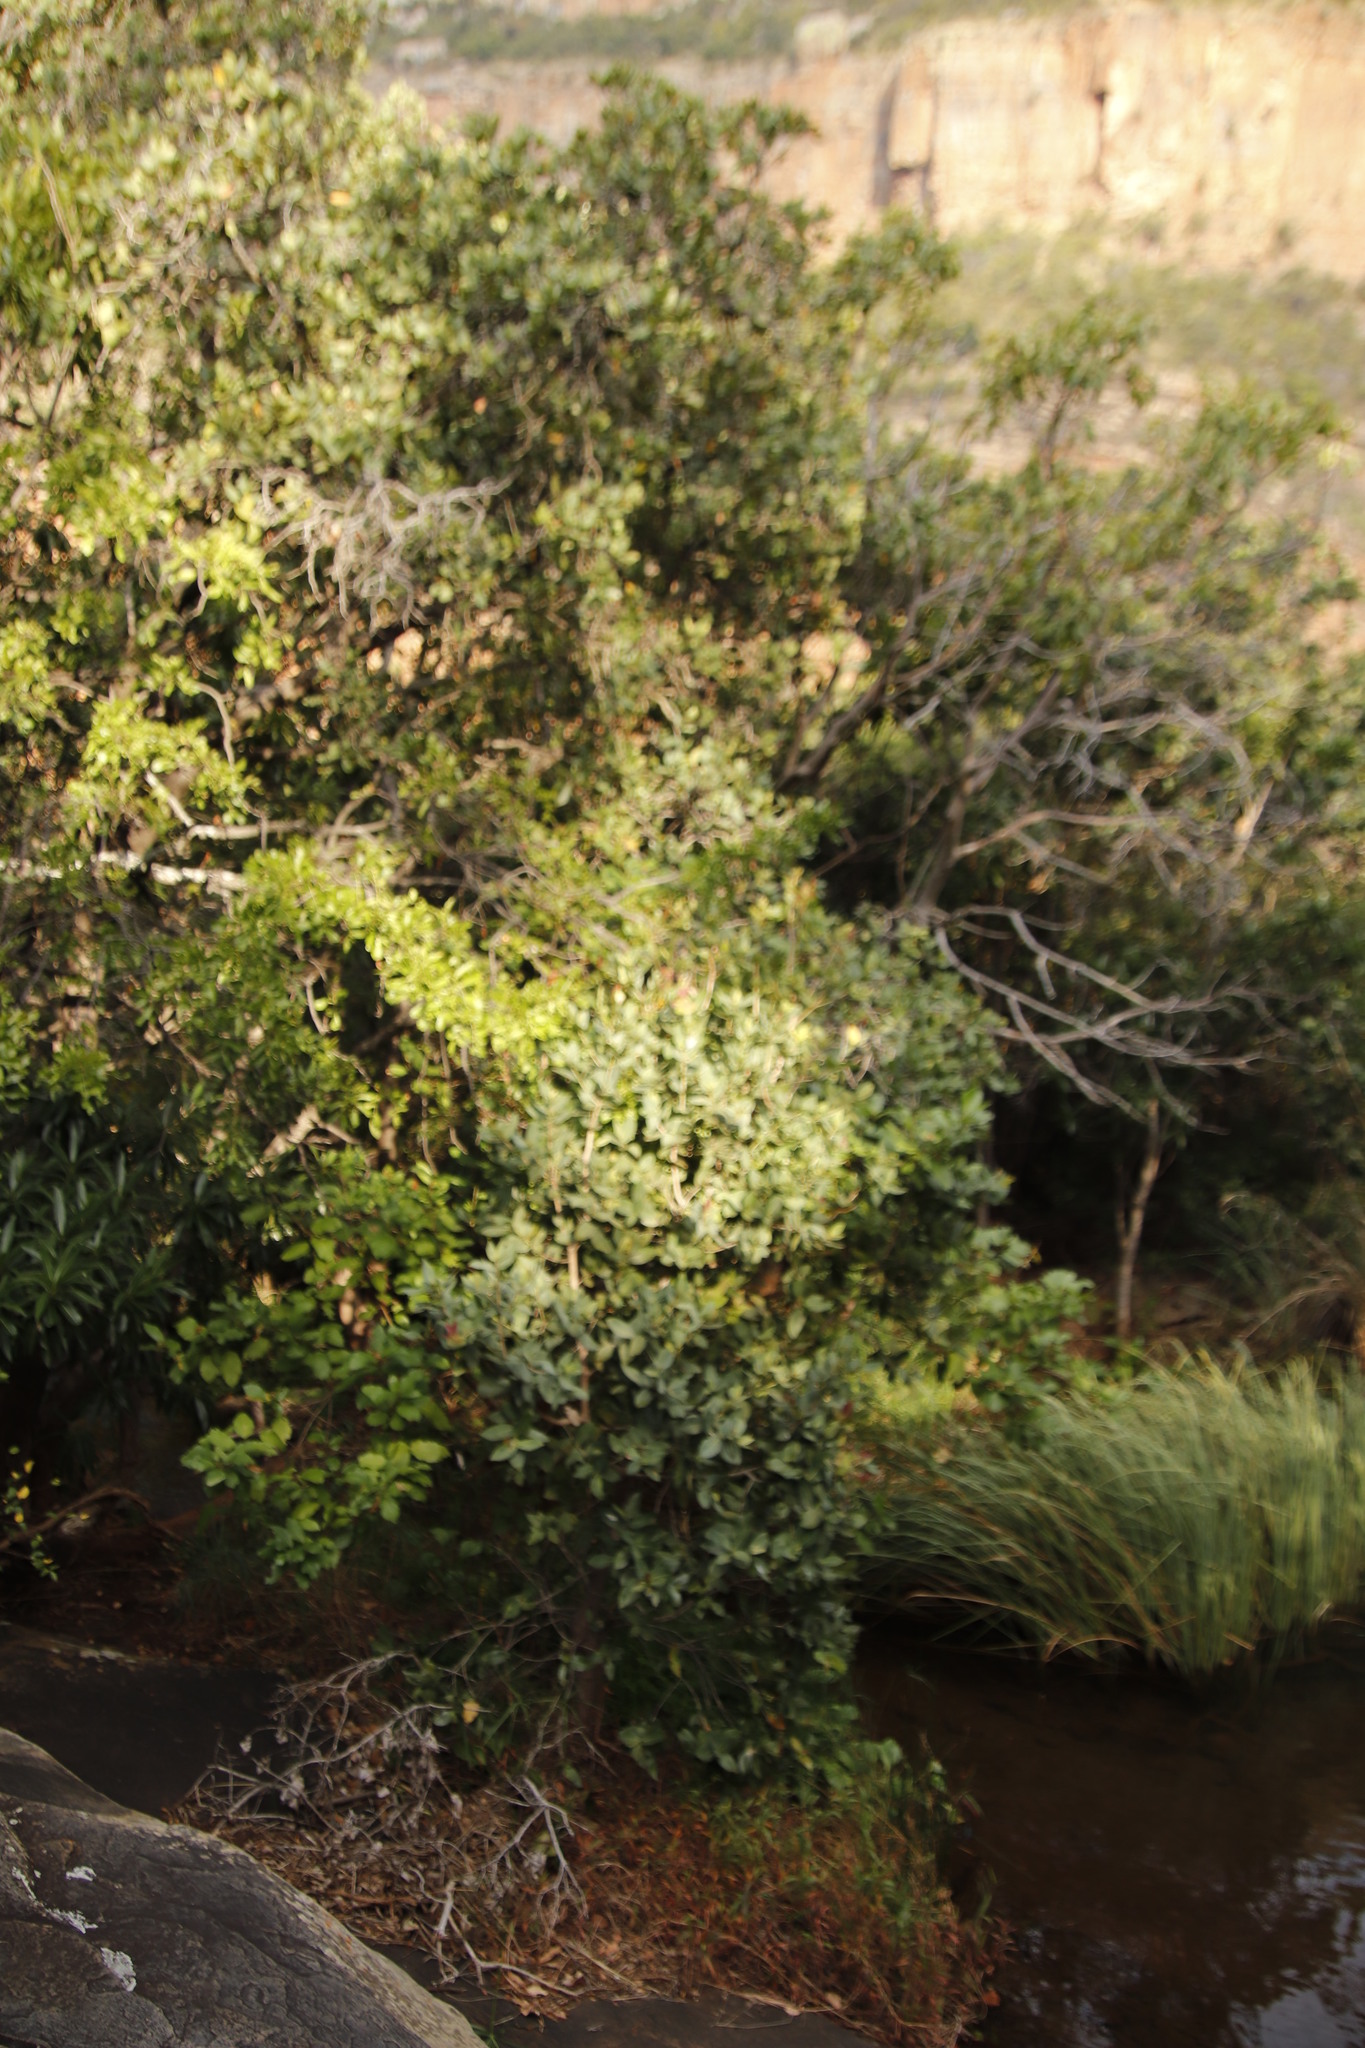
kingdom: Plantae
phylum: Tracheophyta
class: Magnoliopsida
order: Myrtales
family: Myrtaceae
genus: Syzygium
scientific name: Syzygium cordatum
